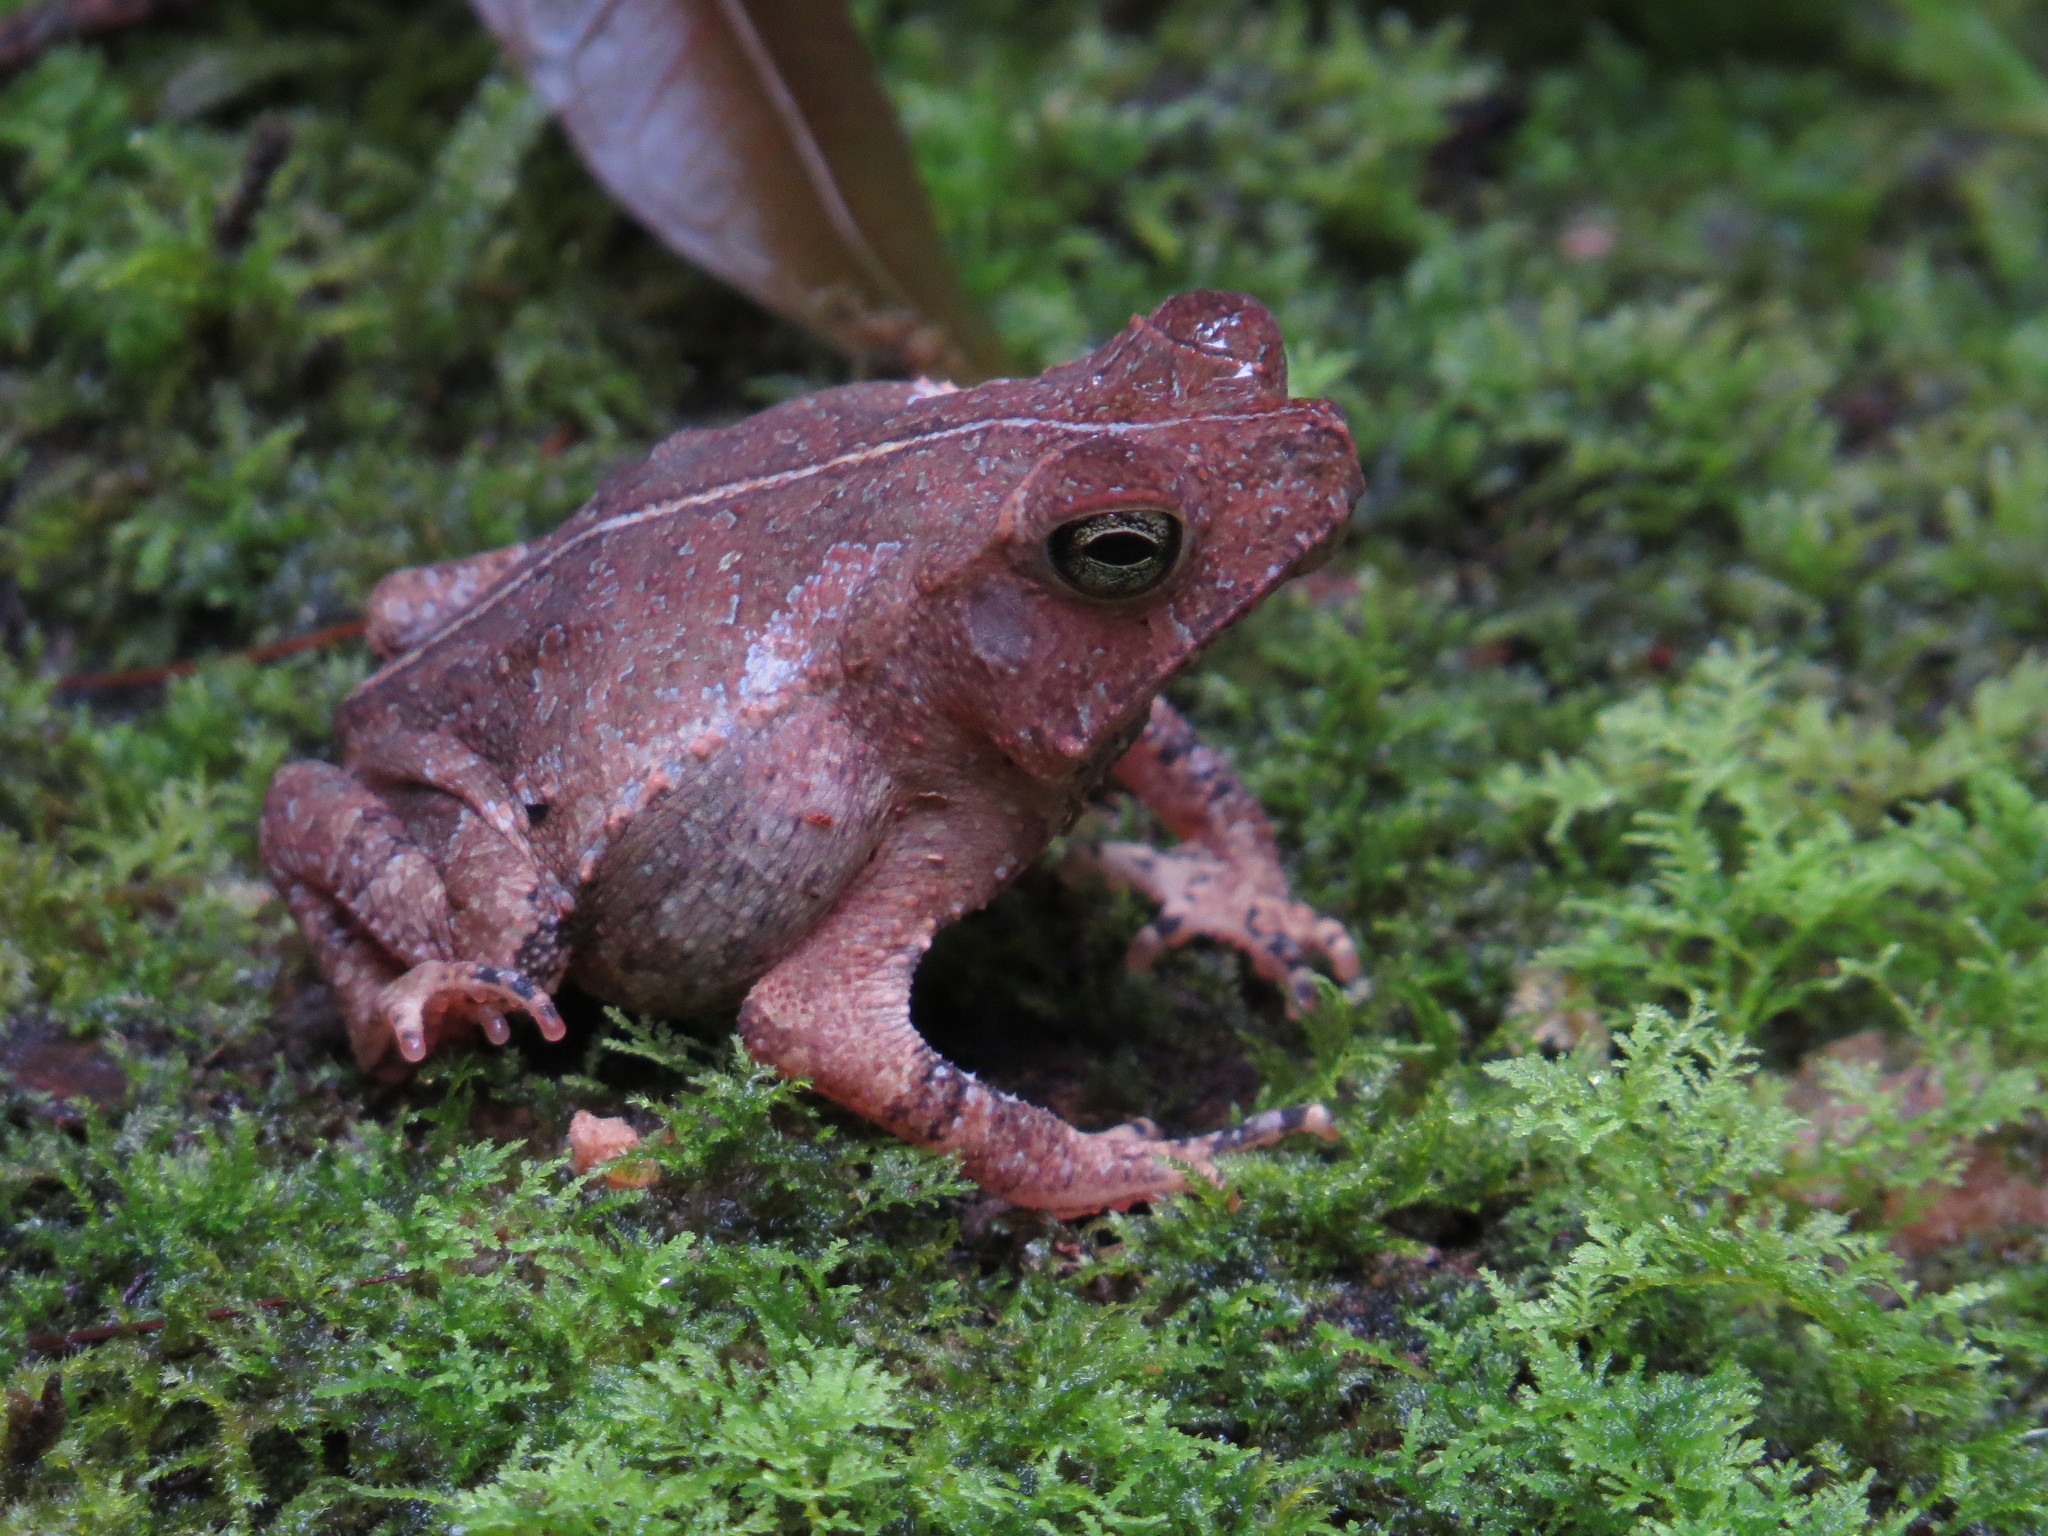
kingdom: Animalia
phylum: Chordata
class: Amphibia
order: Anura
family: Bufonidae
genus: Rhinella
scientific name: Rhinella margaritifera
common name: Mitred toad
